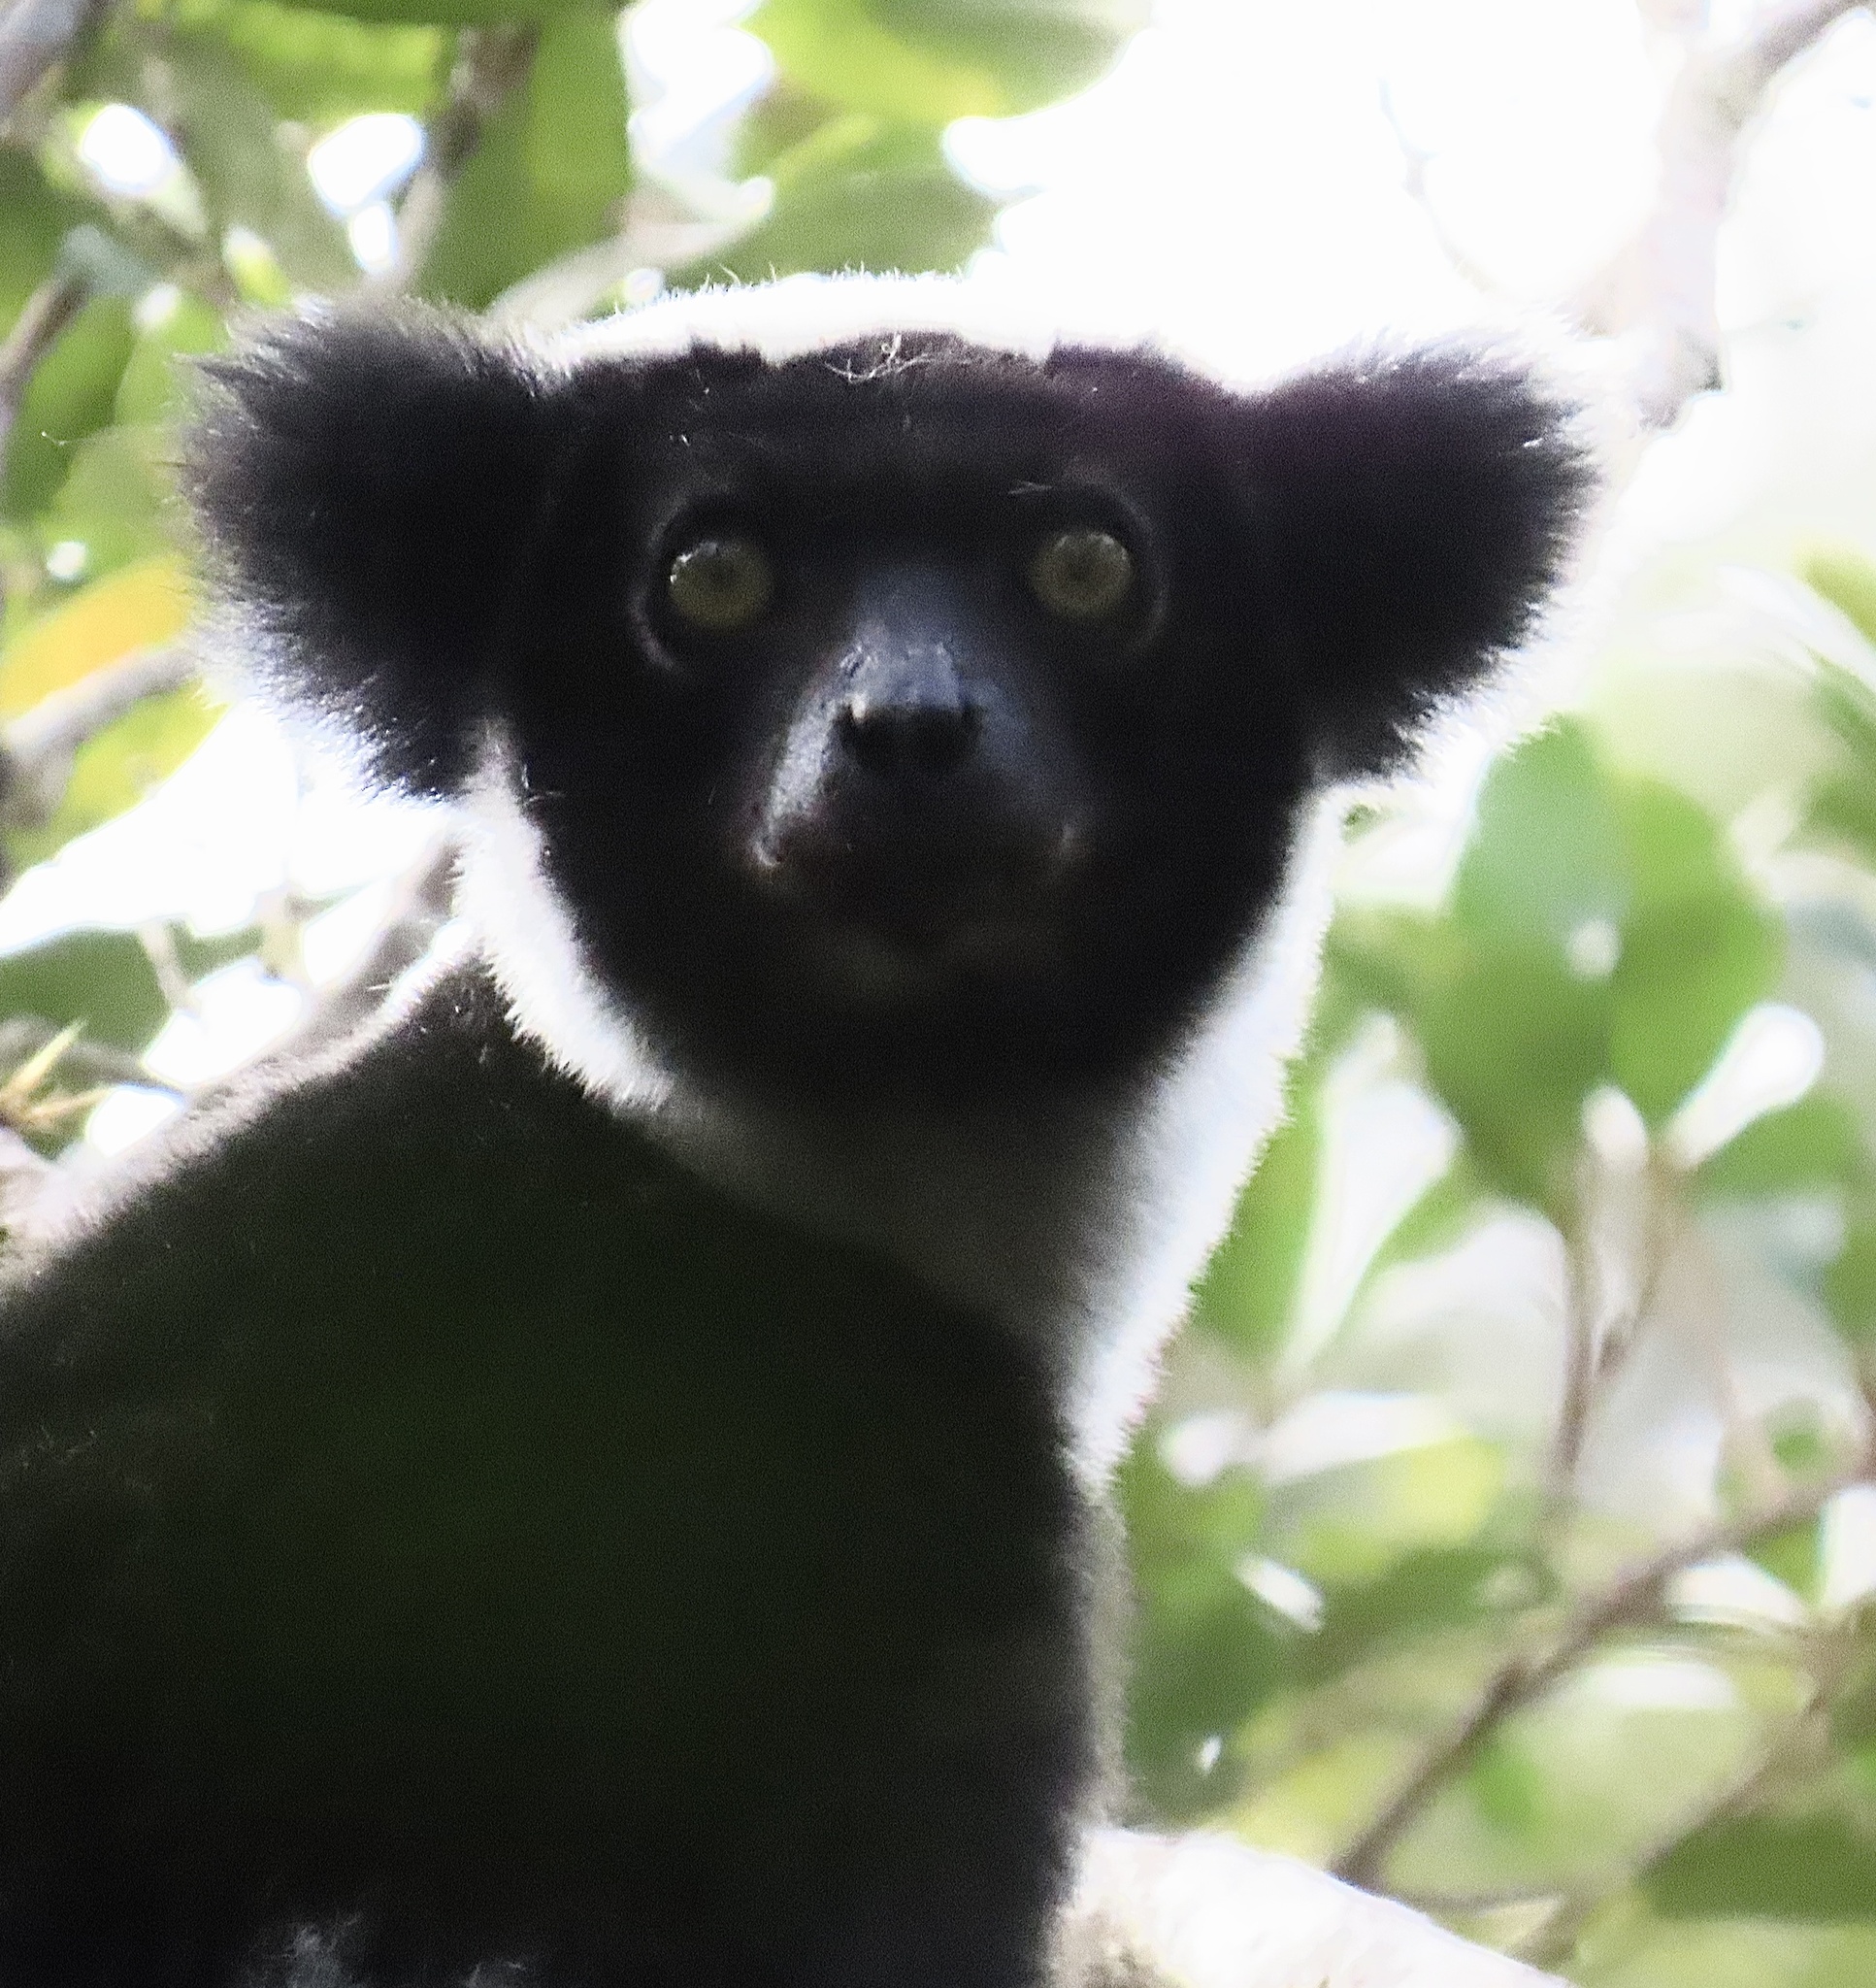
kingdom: Animalia
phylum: Chordata
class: Mammalia
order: Primates
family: Indriidae
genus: Indri
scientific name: Indri indri
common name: Indri
